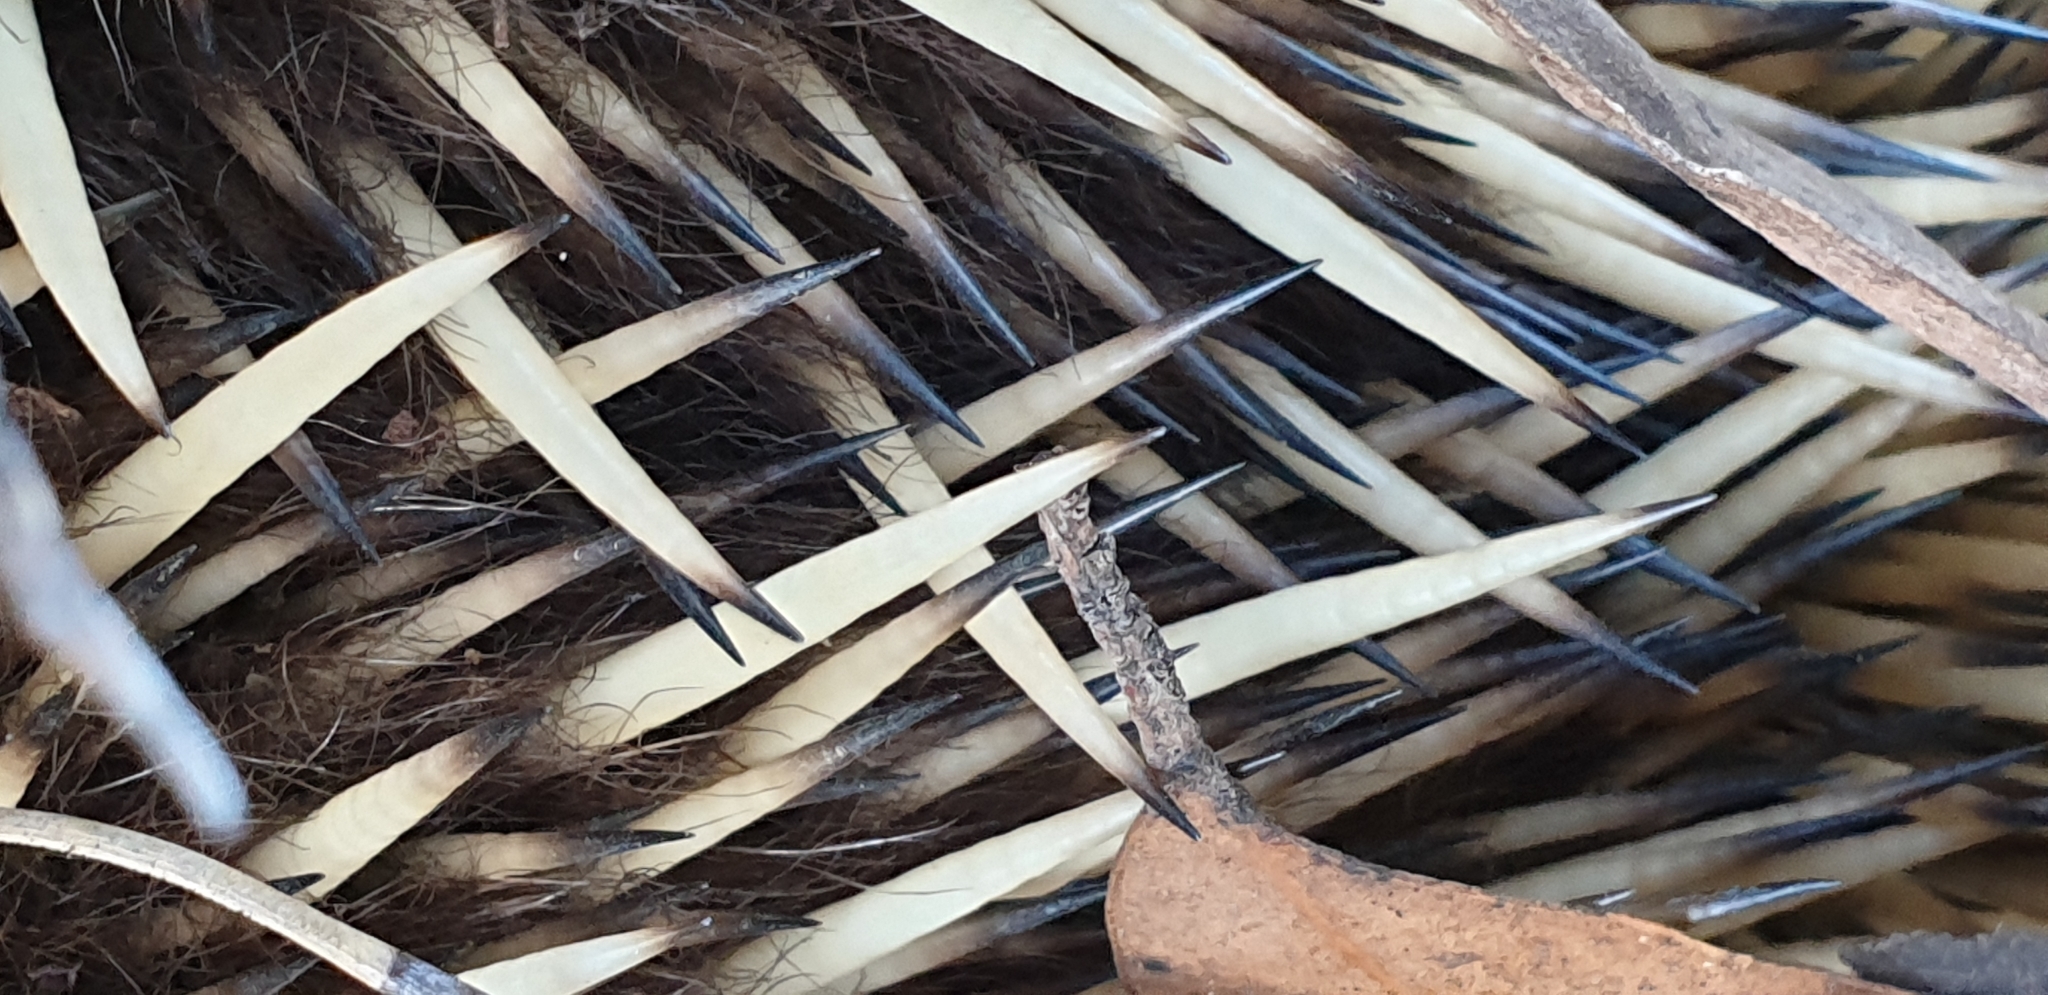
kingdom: Animalia
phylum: Chordata
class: Mammalia
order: Monotremata
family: Tachyglossidae
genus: Tachyglossus
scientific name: Tachyglossus aculeatus
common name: Short-beaked echidna
